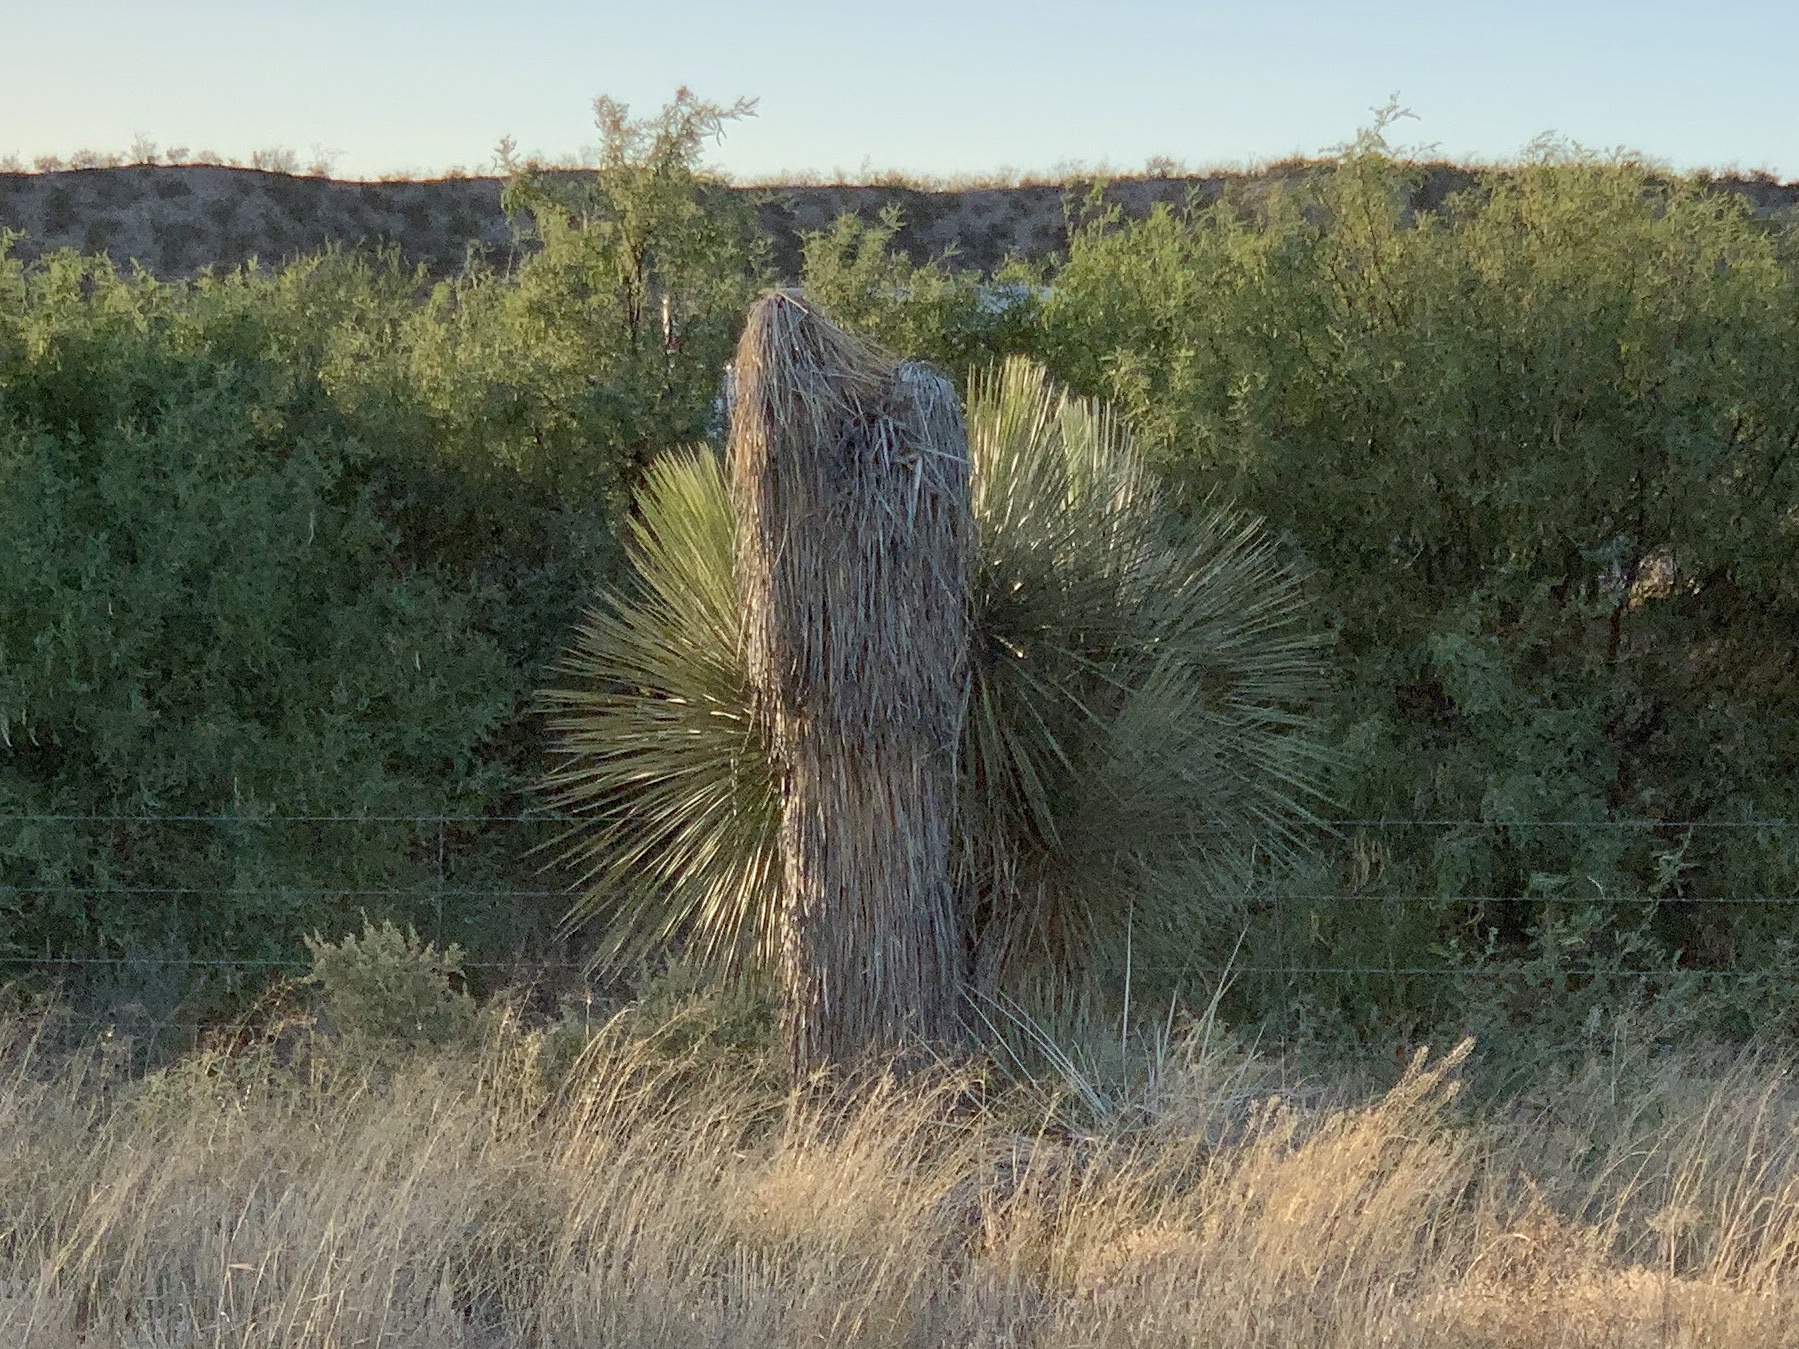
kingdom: Plantae
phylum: Tracheophyta
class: Liliopsida
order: Asparagales
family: Asparagaceae
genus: Yucca
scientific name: Yucca elata
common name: Palmella
